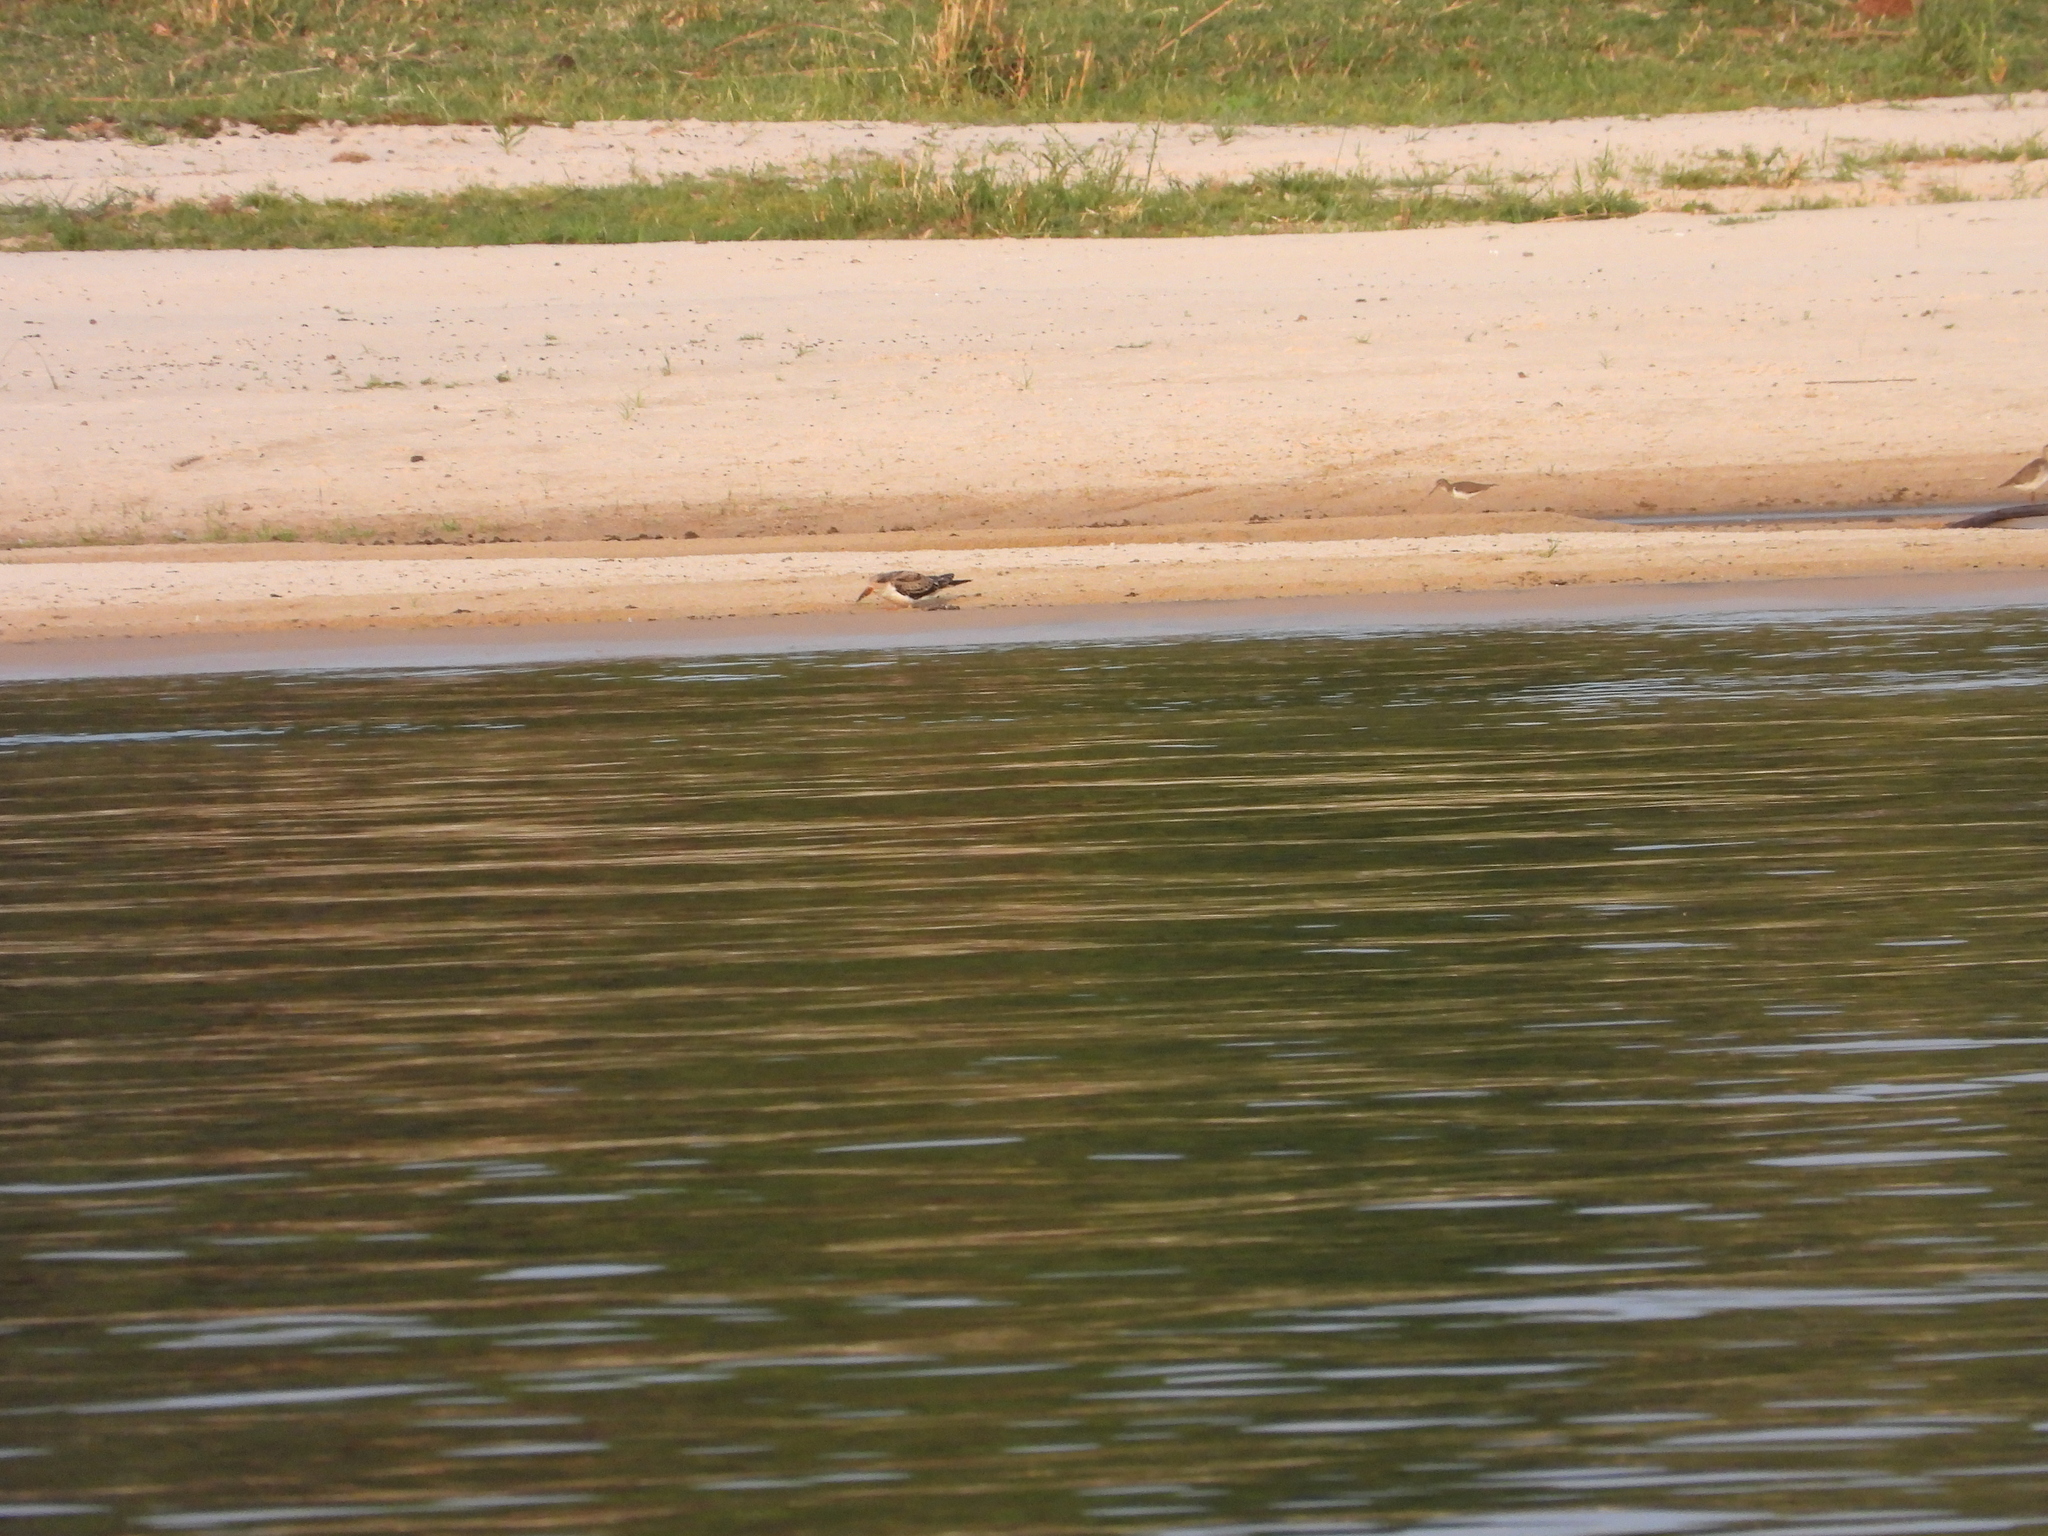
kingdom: Animalia
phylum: Chordata
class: Aves
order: Charadriiformes
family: Laridae
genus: Rynchops
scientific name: Rynchops flavirostris
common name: African skimmer
